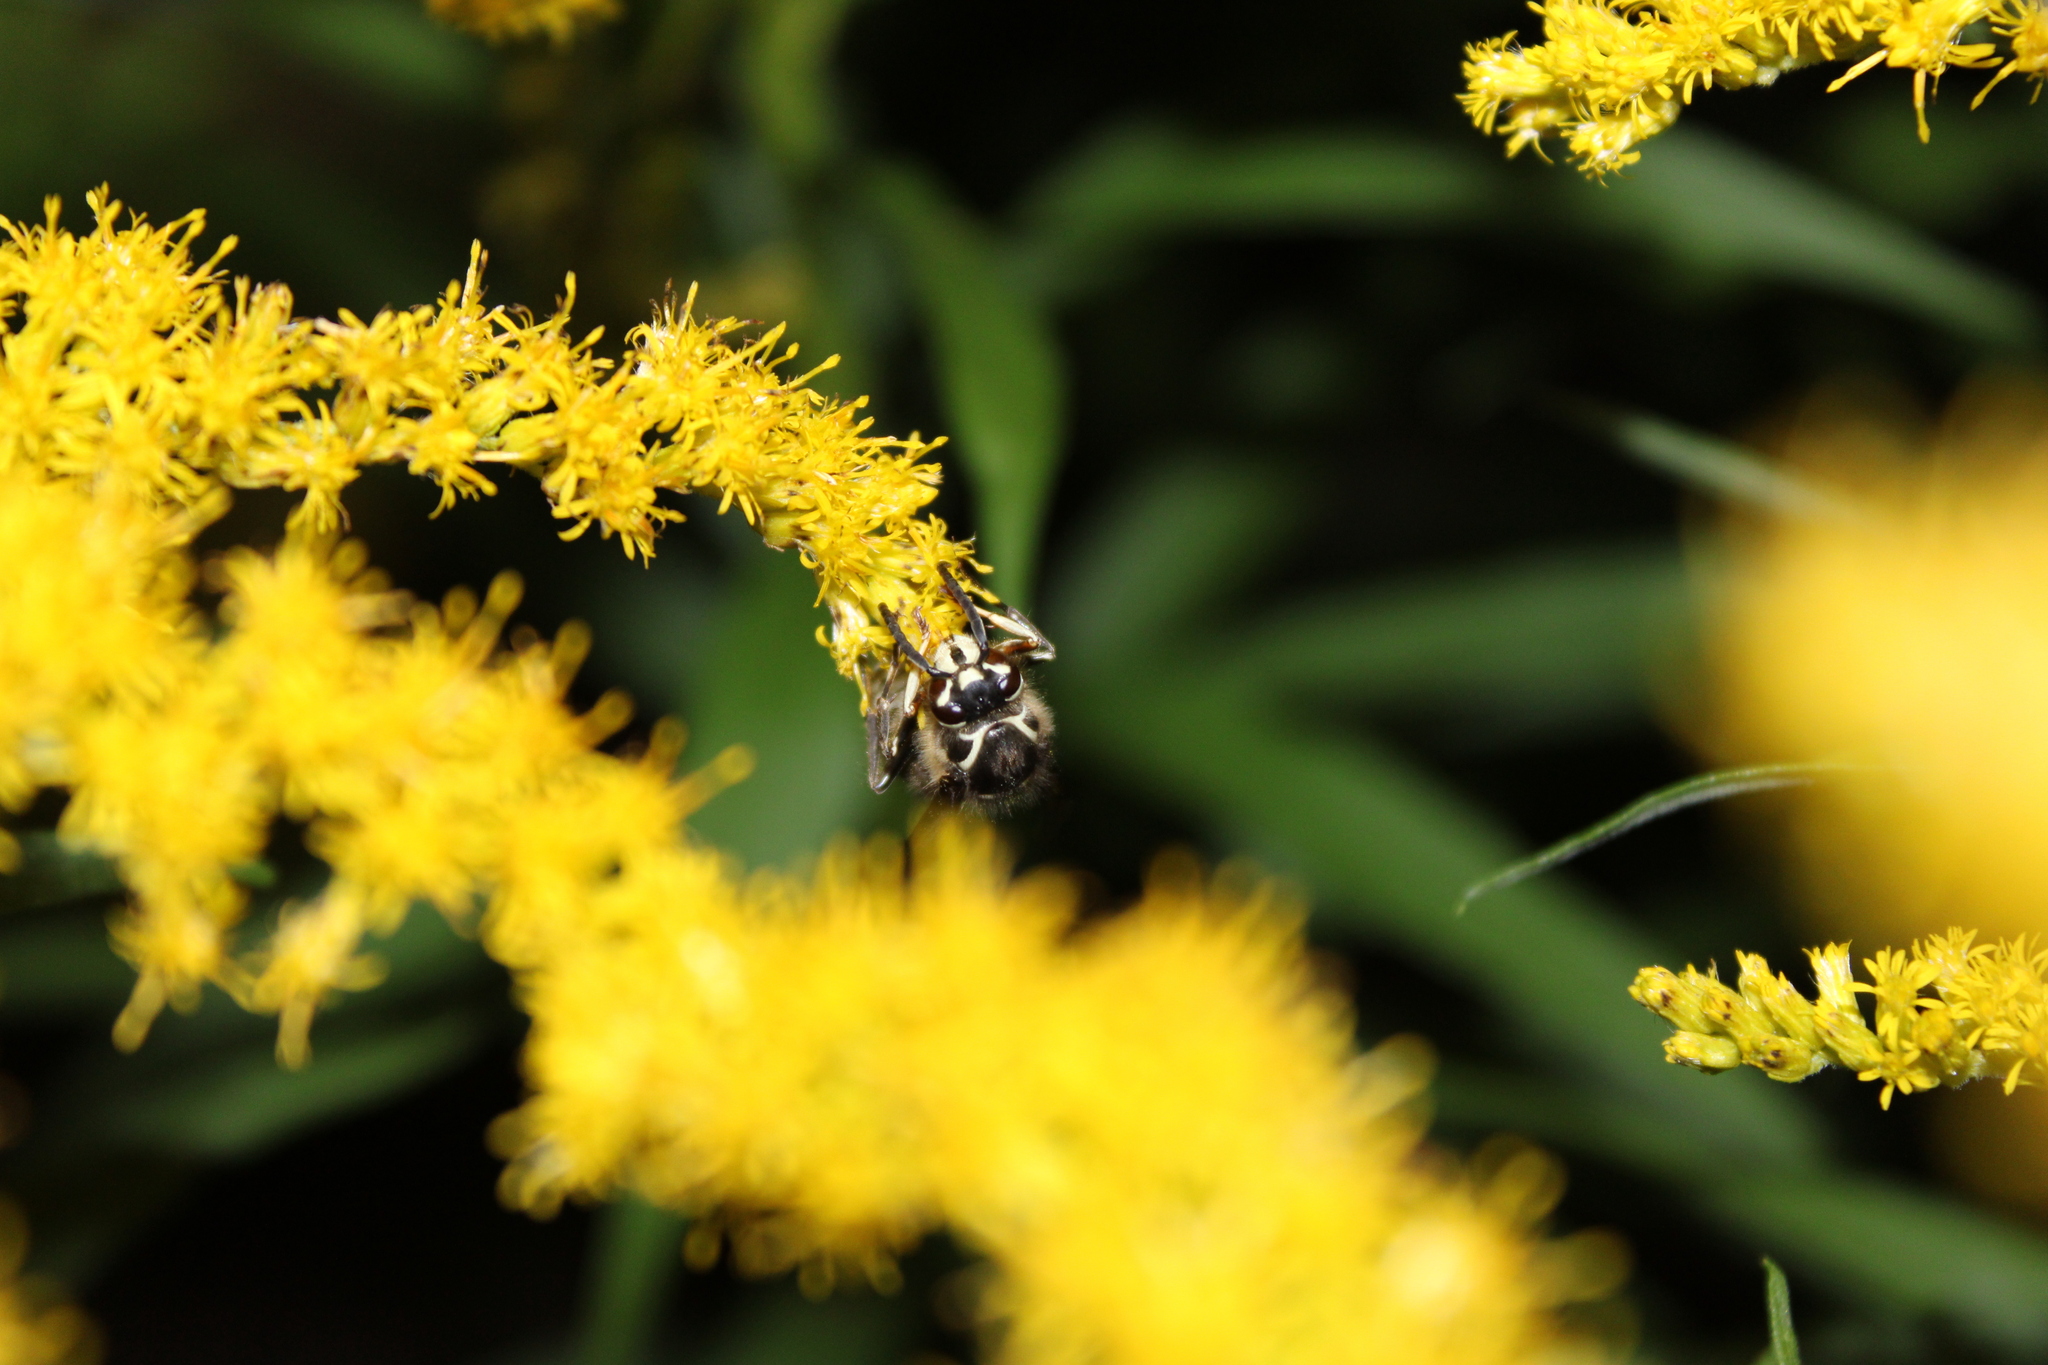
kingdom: Animalia
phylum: Arthropoda
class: Insecta
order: Hymenoptera
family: Vespidae
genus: Dolichovespula
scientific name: Dolichovespula maculata
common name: Bald-faced hornet
